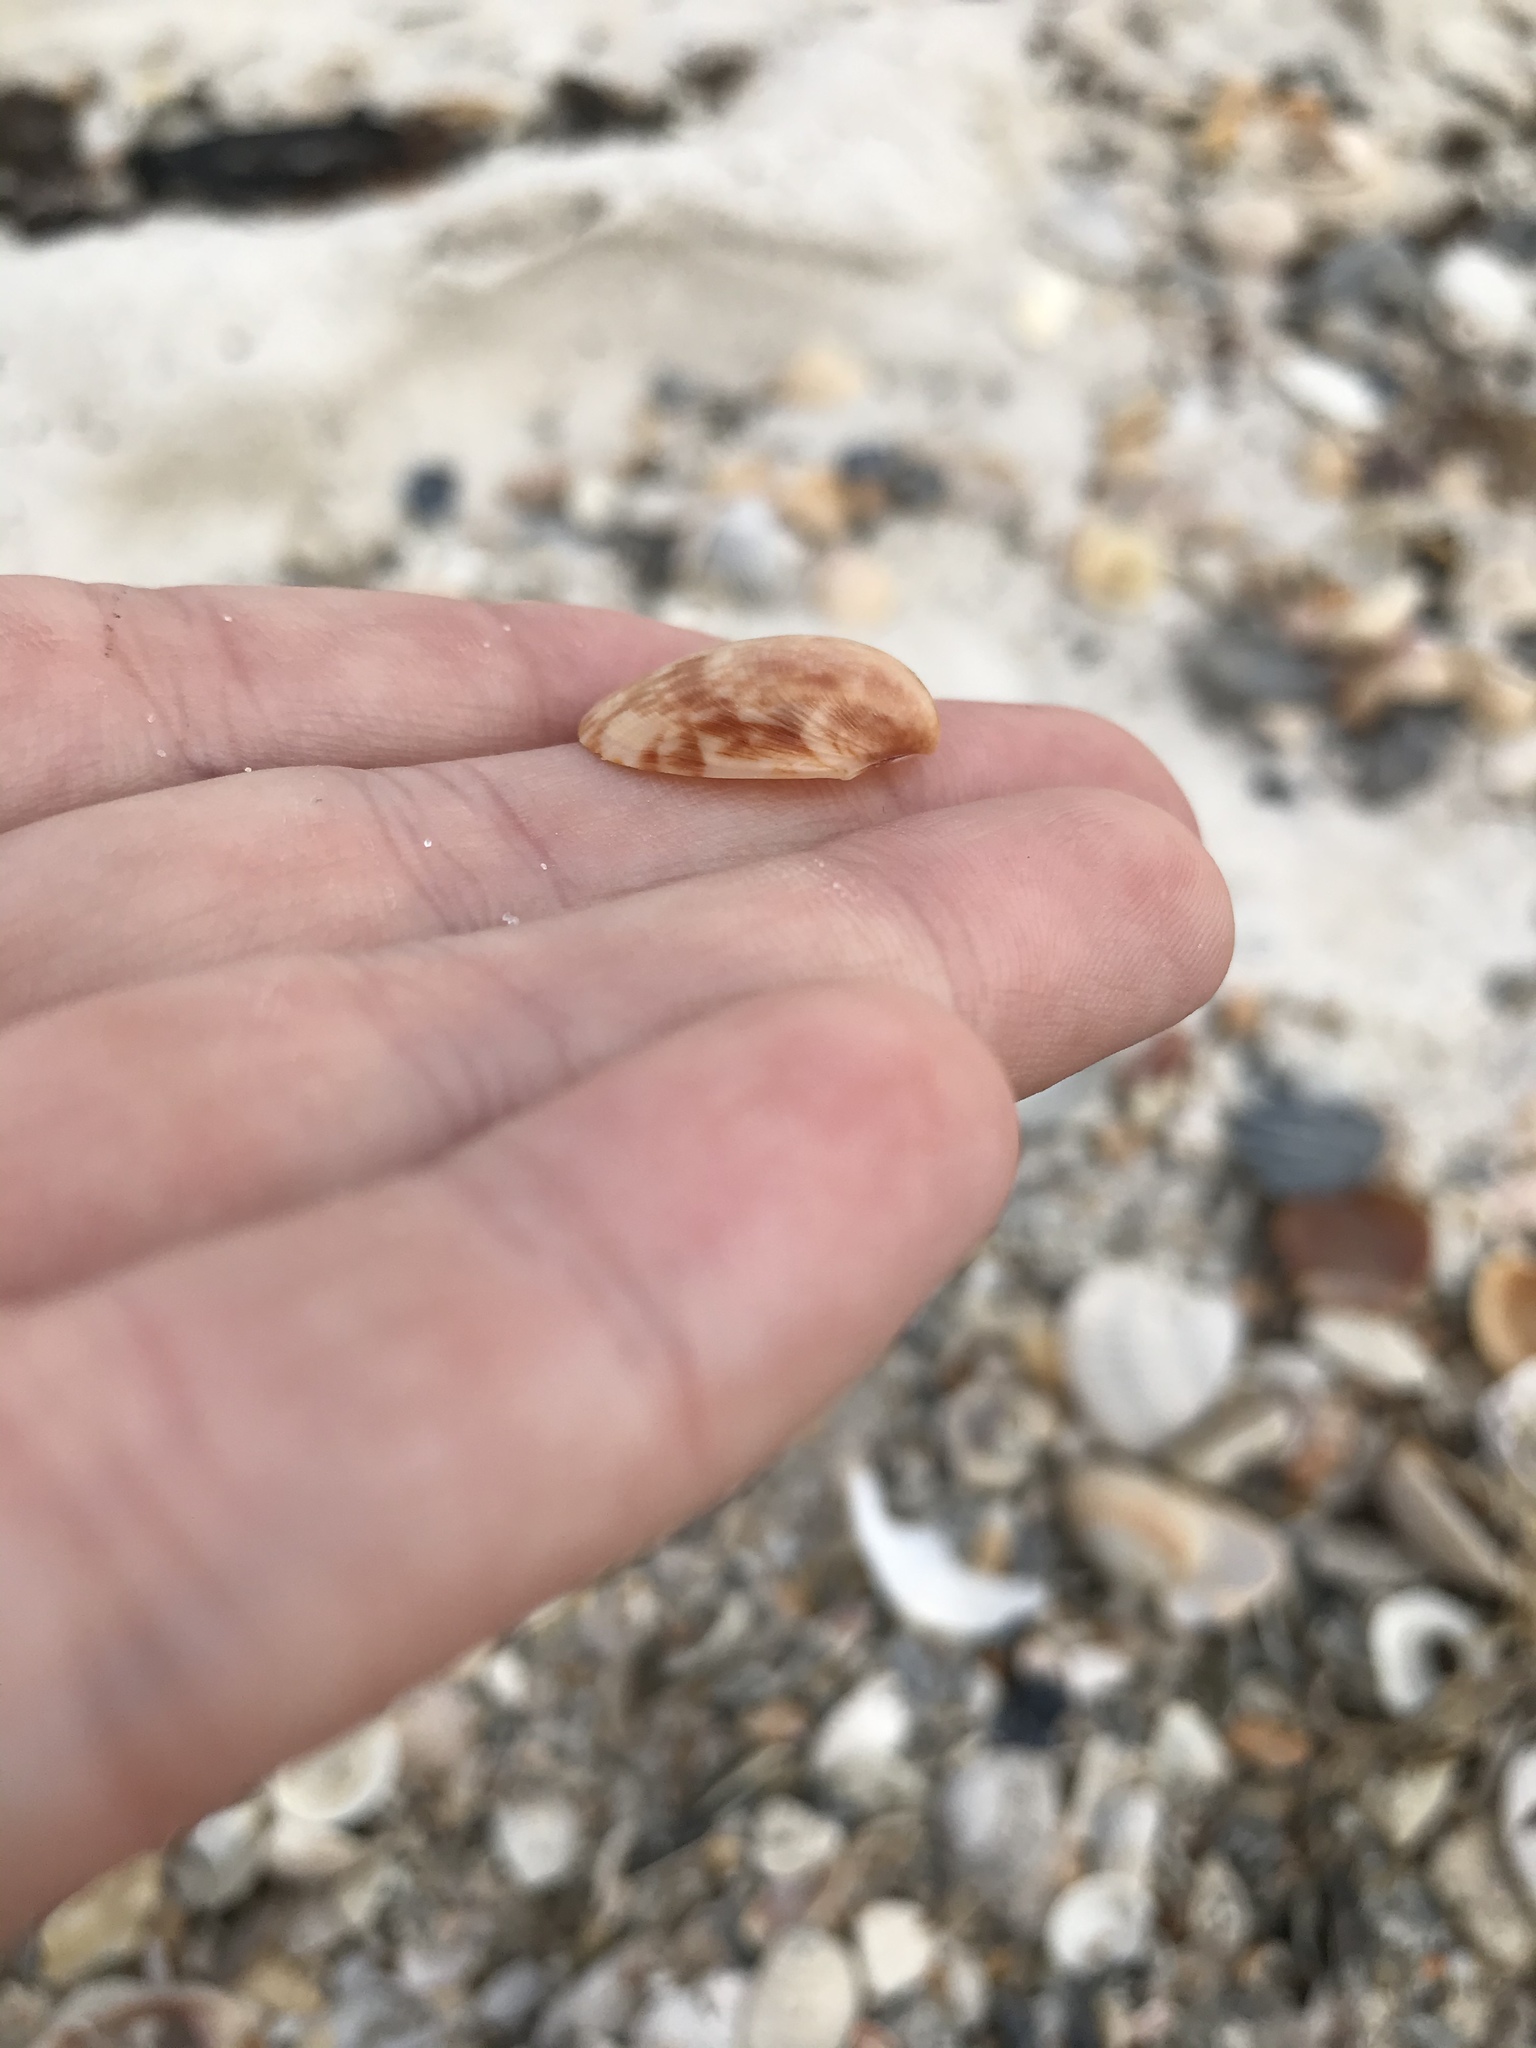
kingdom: Animalia
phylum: Mollusca
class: Bivalvia
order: Cardiida
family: Cardiidae
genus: Laevicardium
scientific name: Laevicardium pictum
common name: Painted eggcockle
